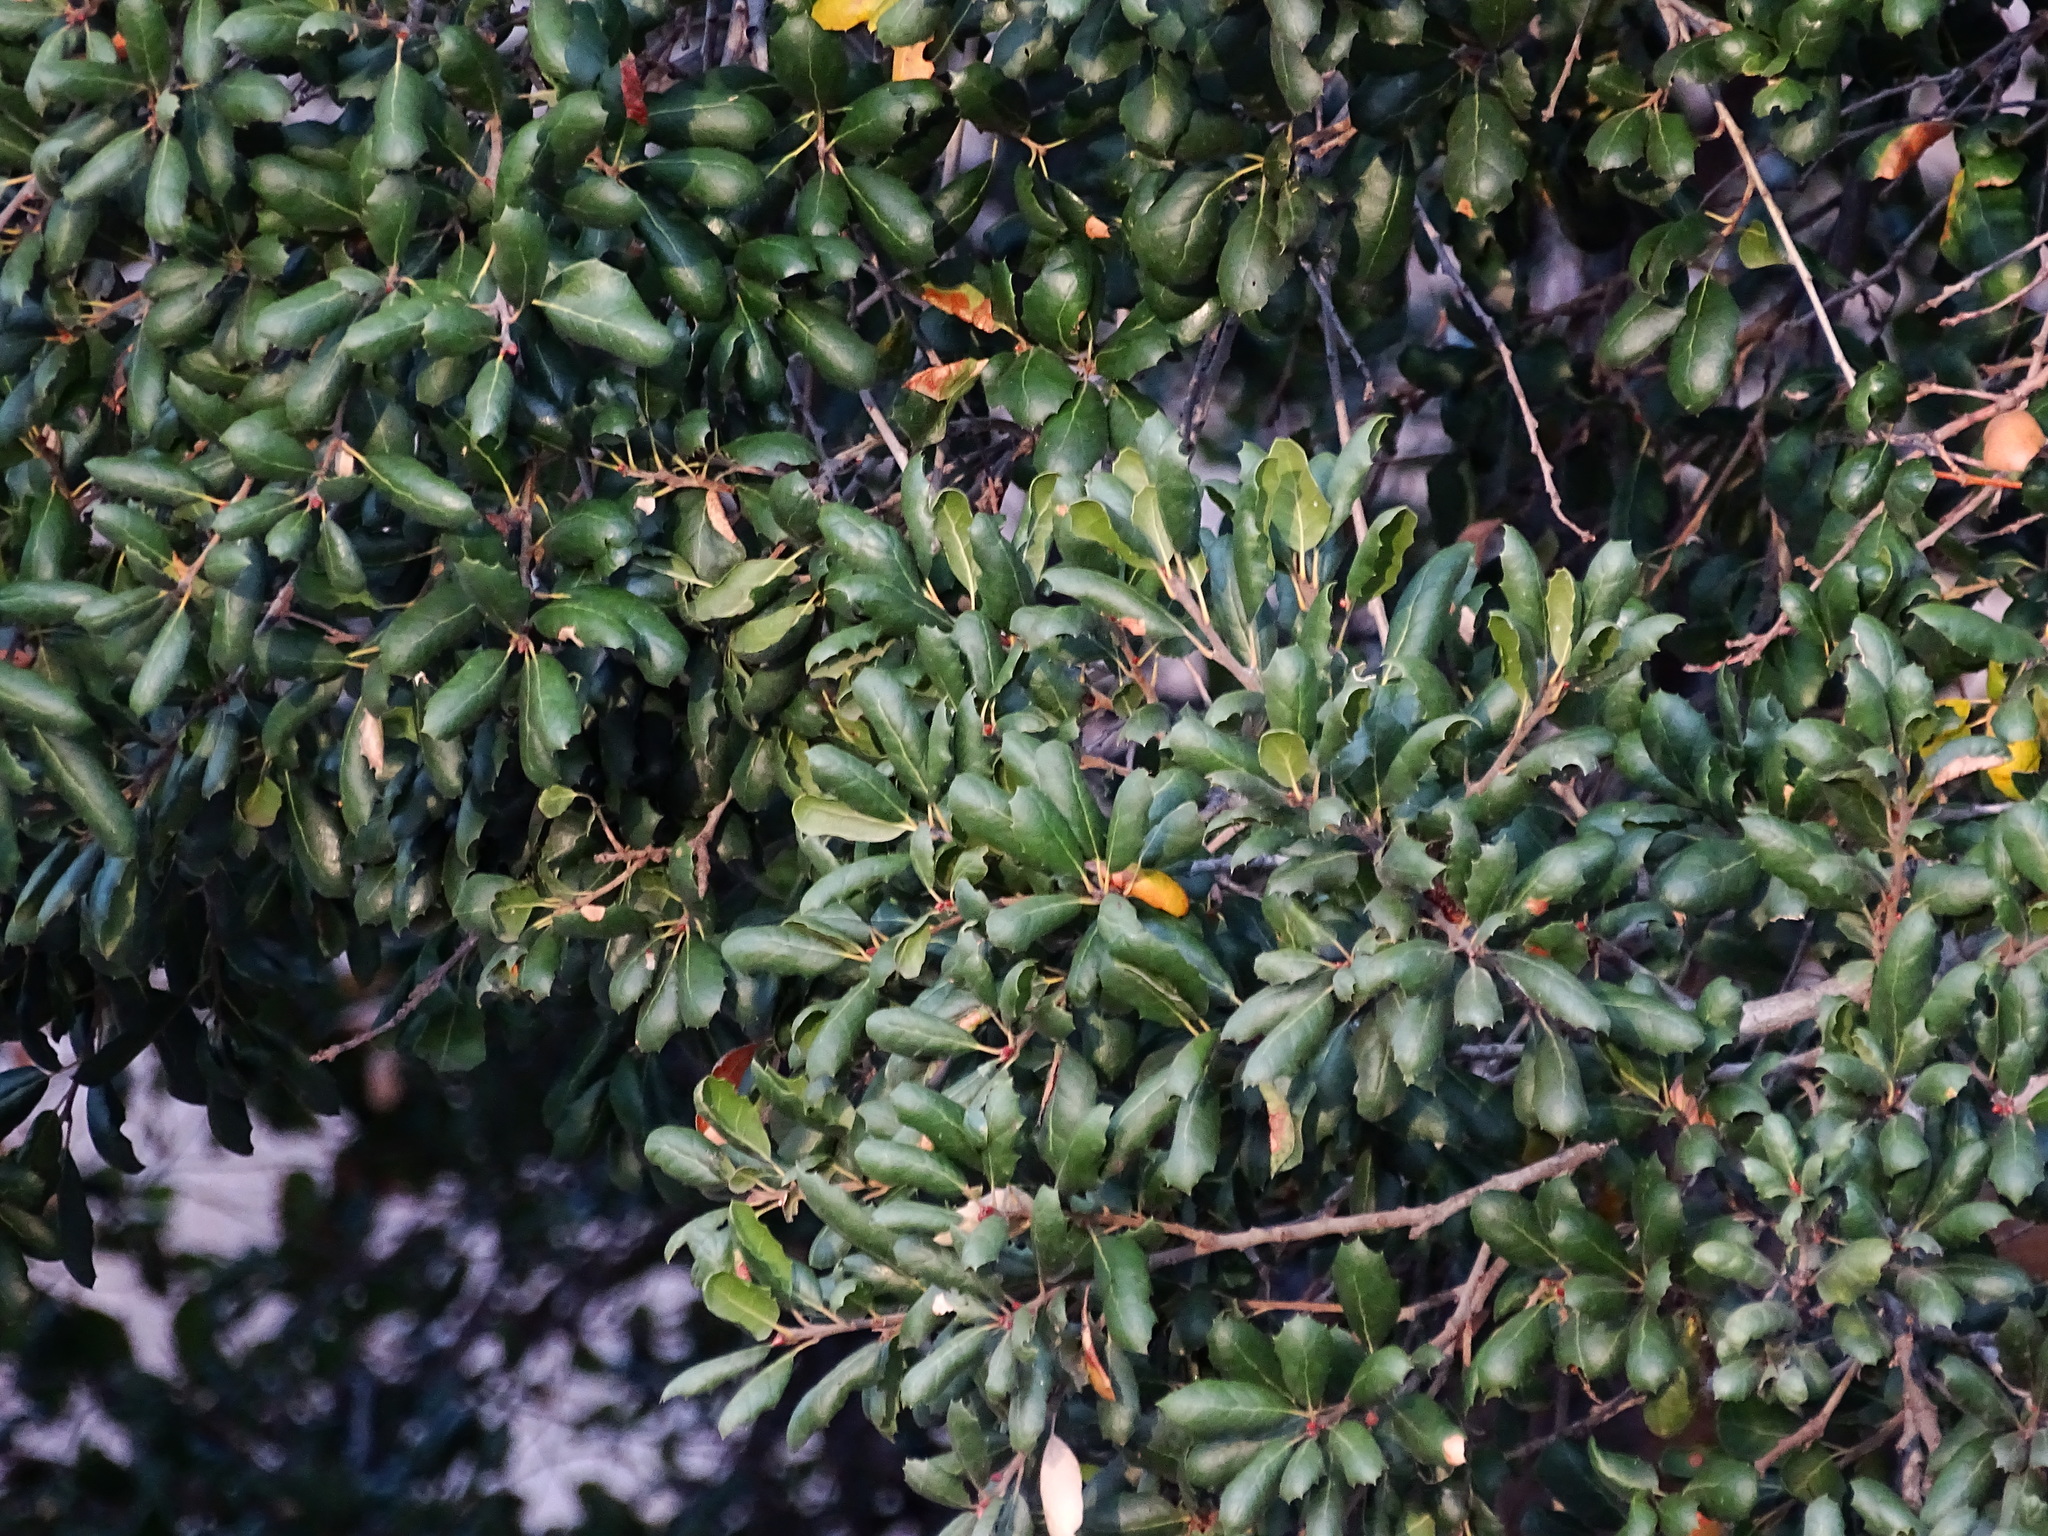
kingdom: Plantae
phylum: Tracheophyta
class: Magnoliopsida
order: Fagales
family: Fagaceae
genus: Quercus
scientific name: Quercus agrifolia
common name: California live oak
